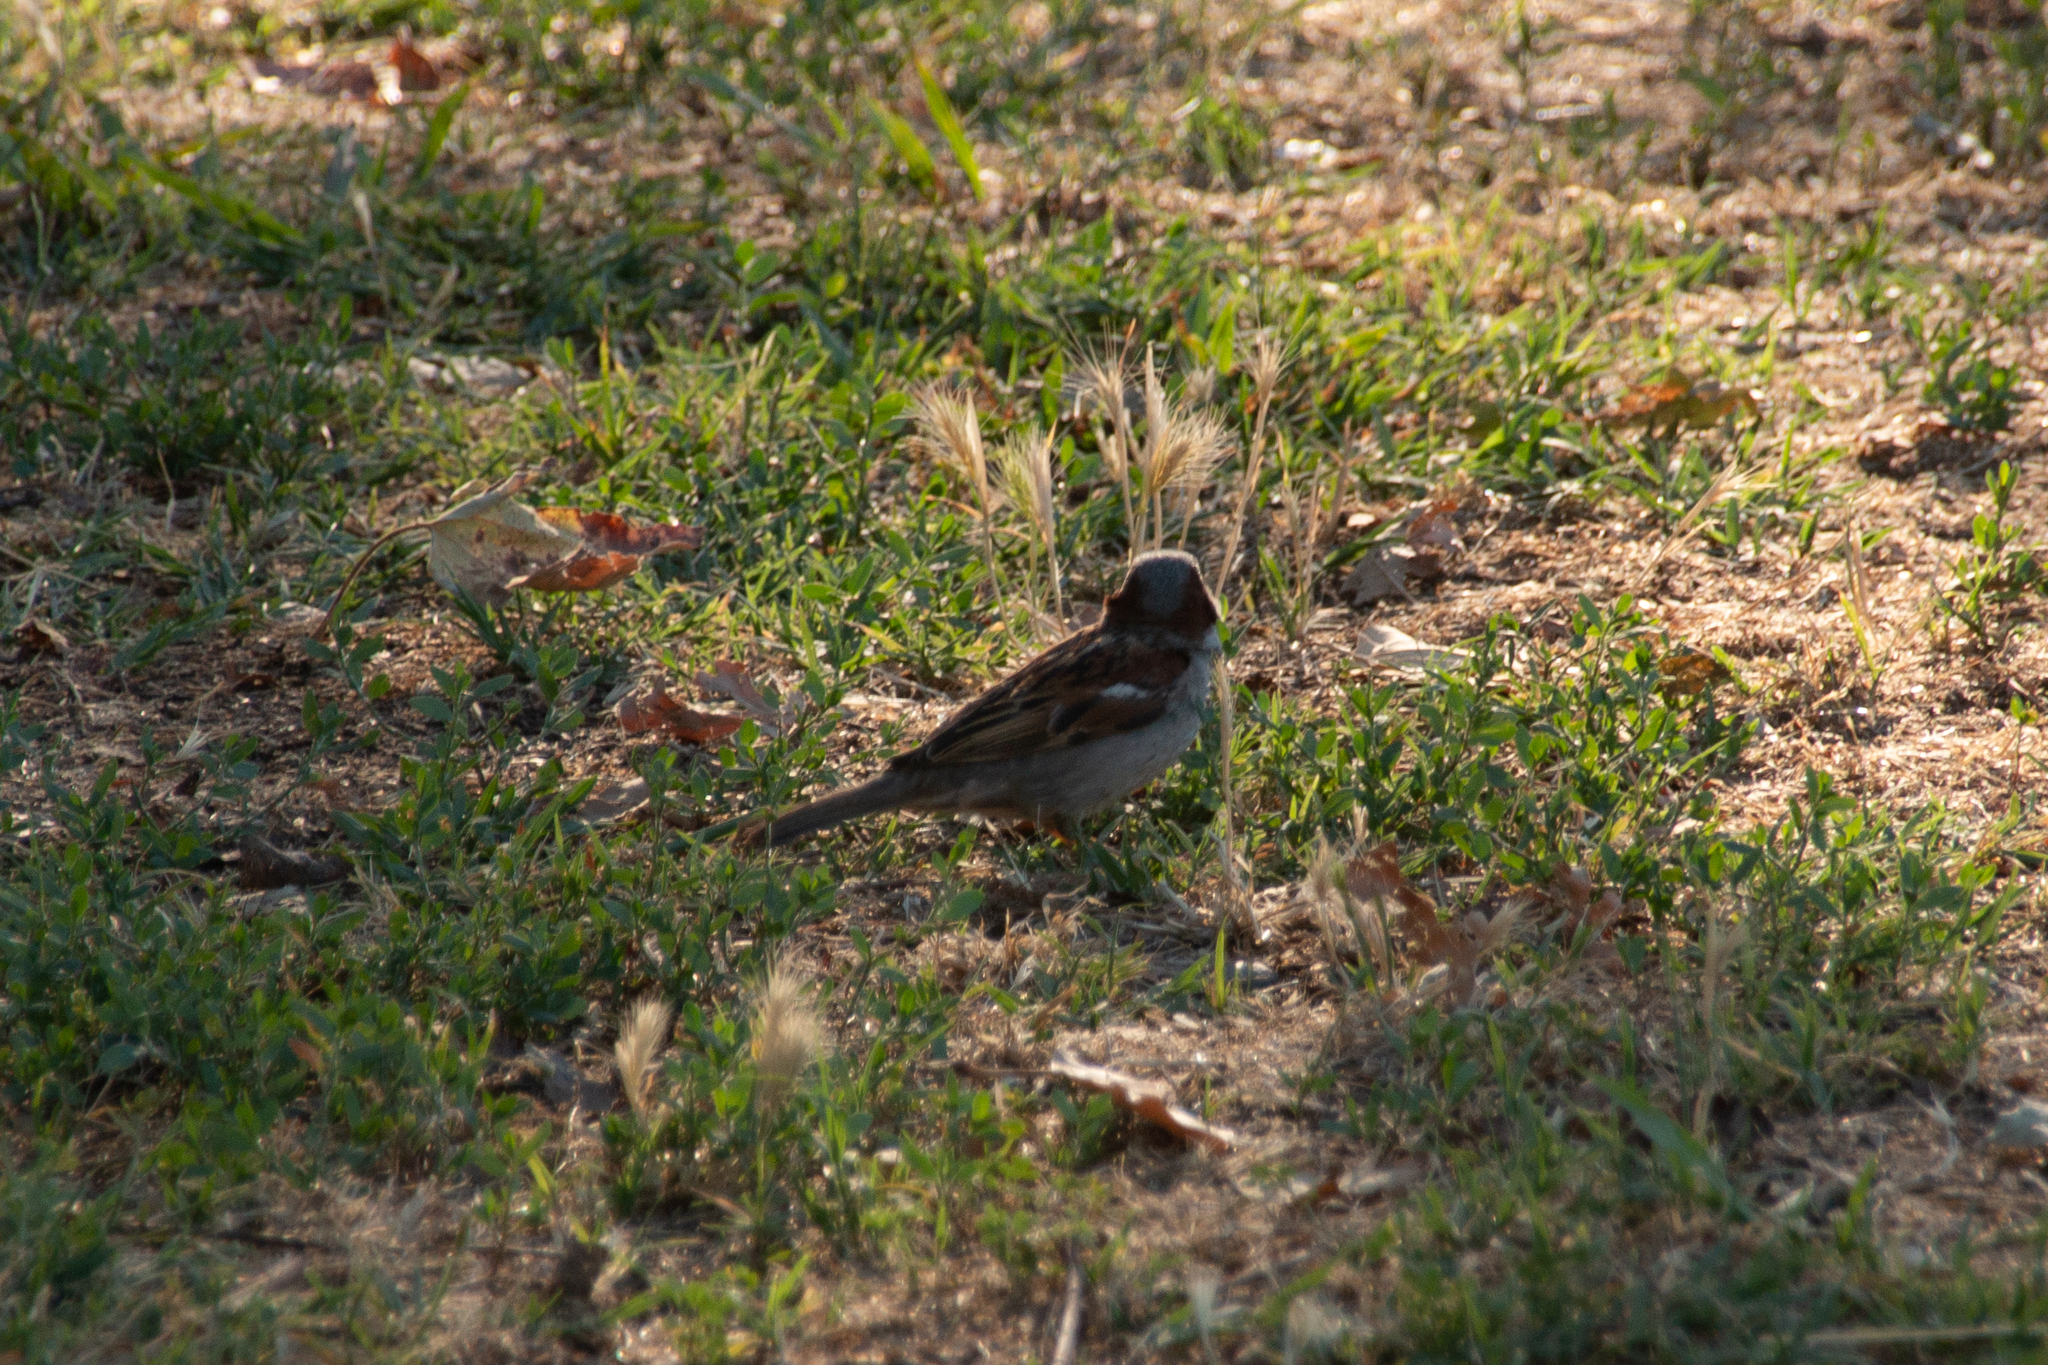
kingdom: Animalia
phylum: Chordata
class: Aves
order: Passeriformes
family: Passeridae
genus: Passer
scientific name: Passer domesticus
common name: House sparrow
